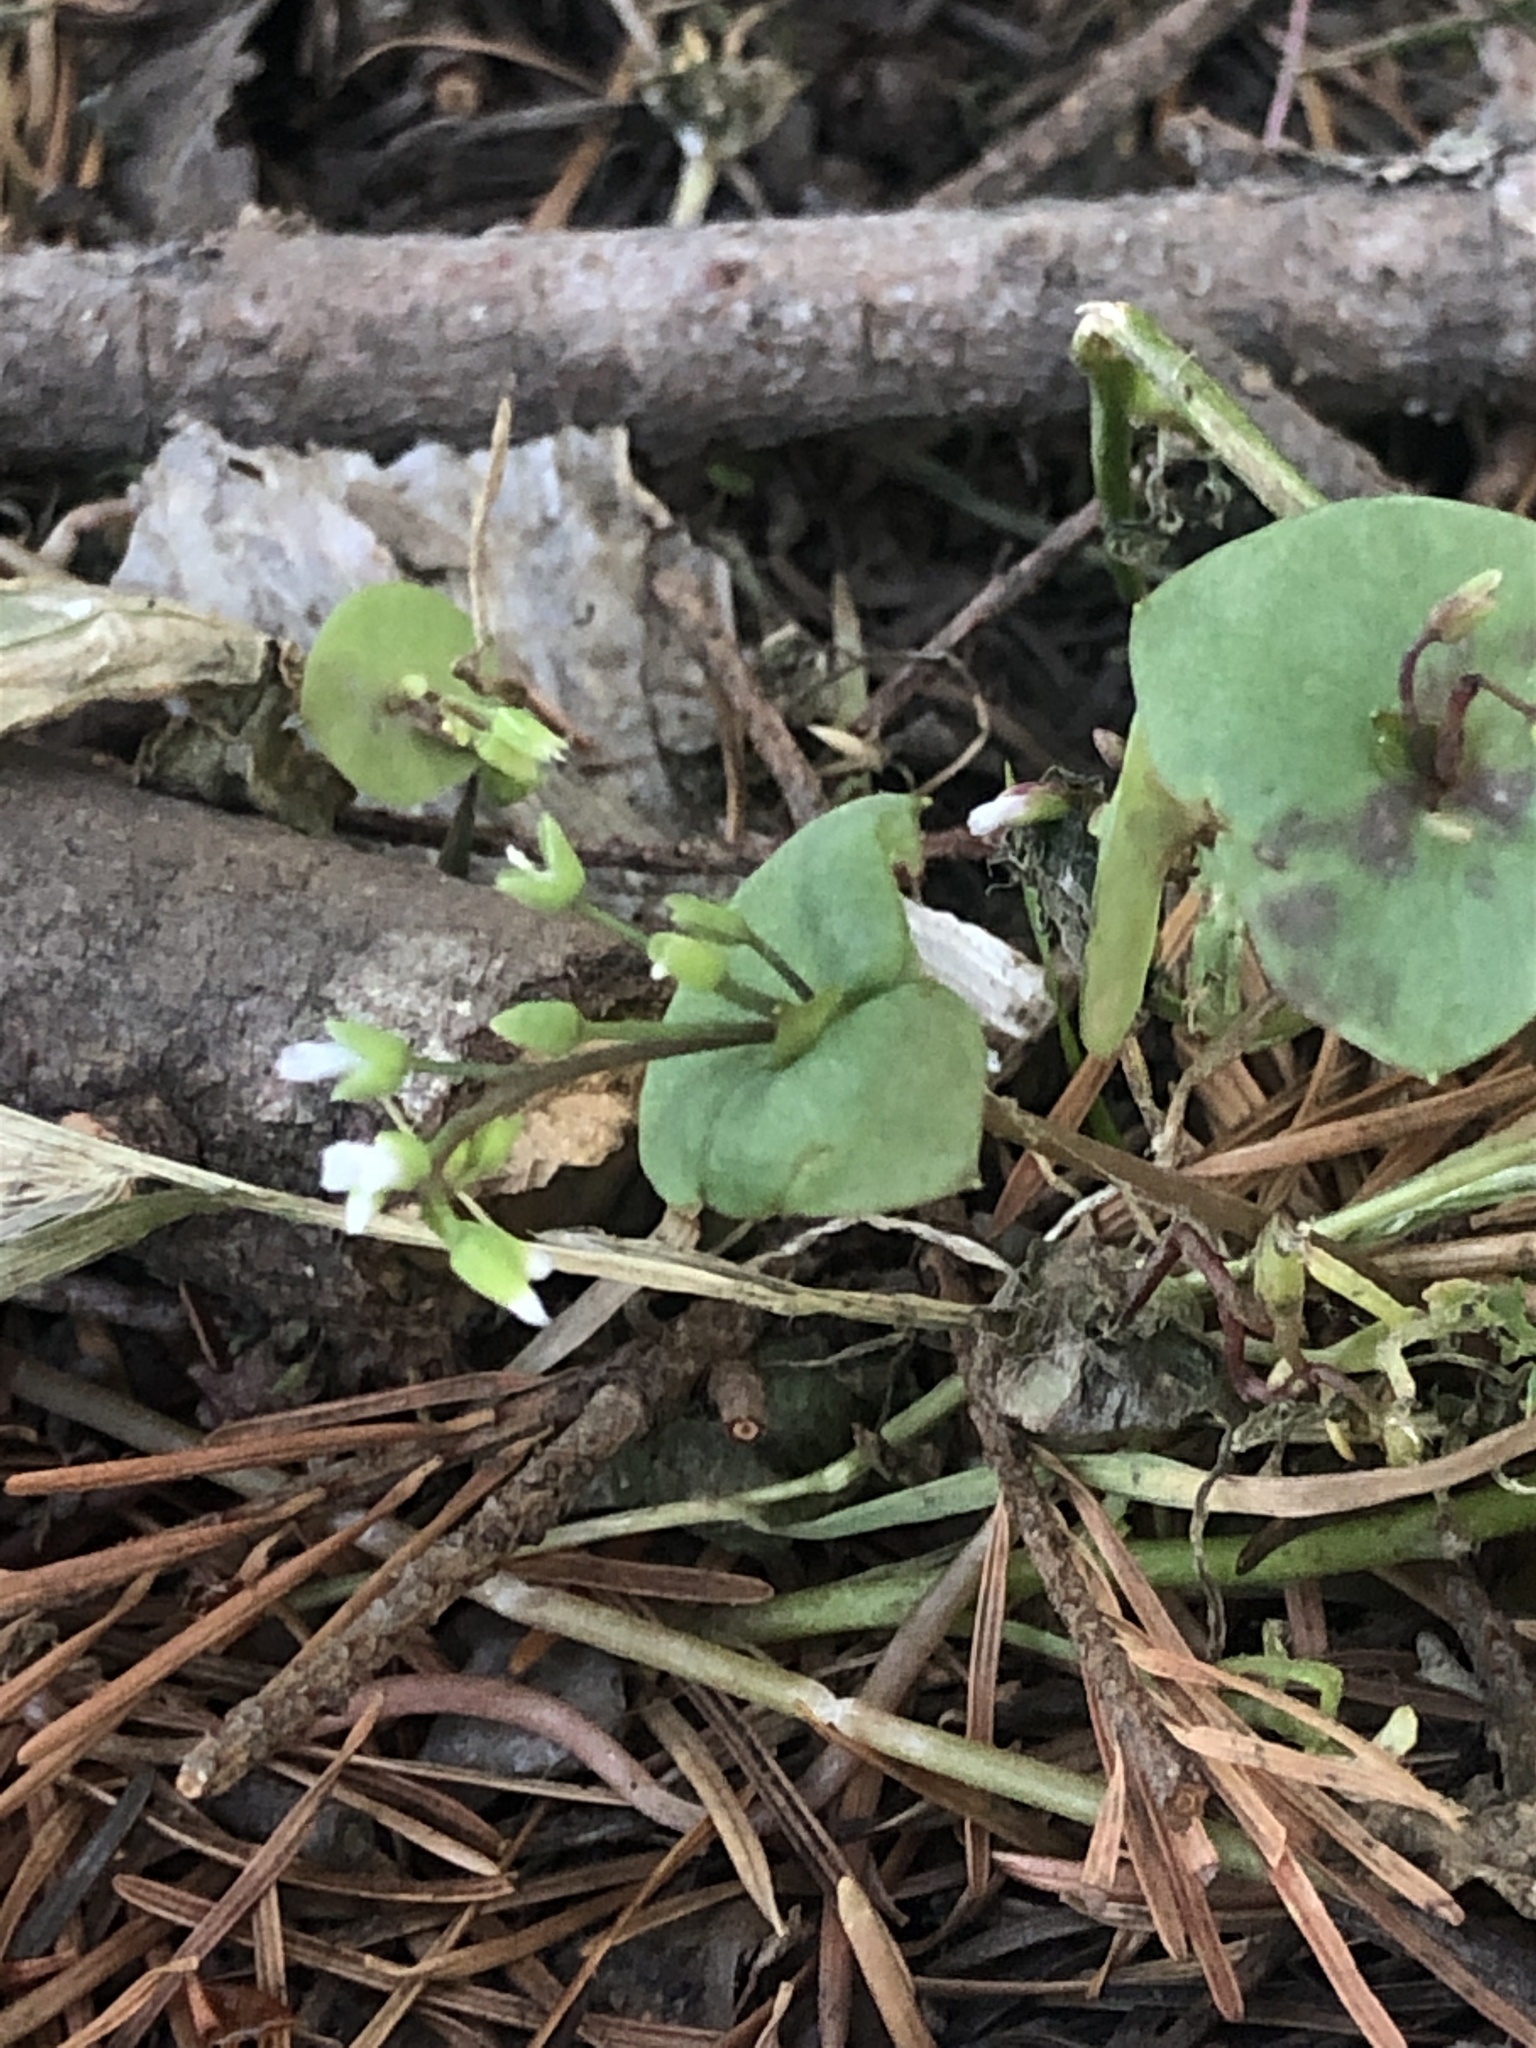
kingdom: Plantae
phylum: Tracheophyta
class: Magnoliopsida
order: Caryophyllales
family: Montiaceae
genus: Claytonia
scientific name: Claytonia perfoliata
